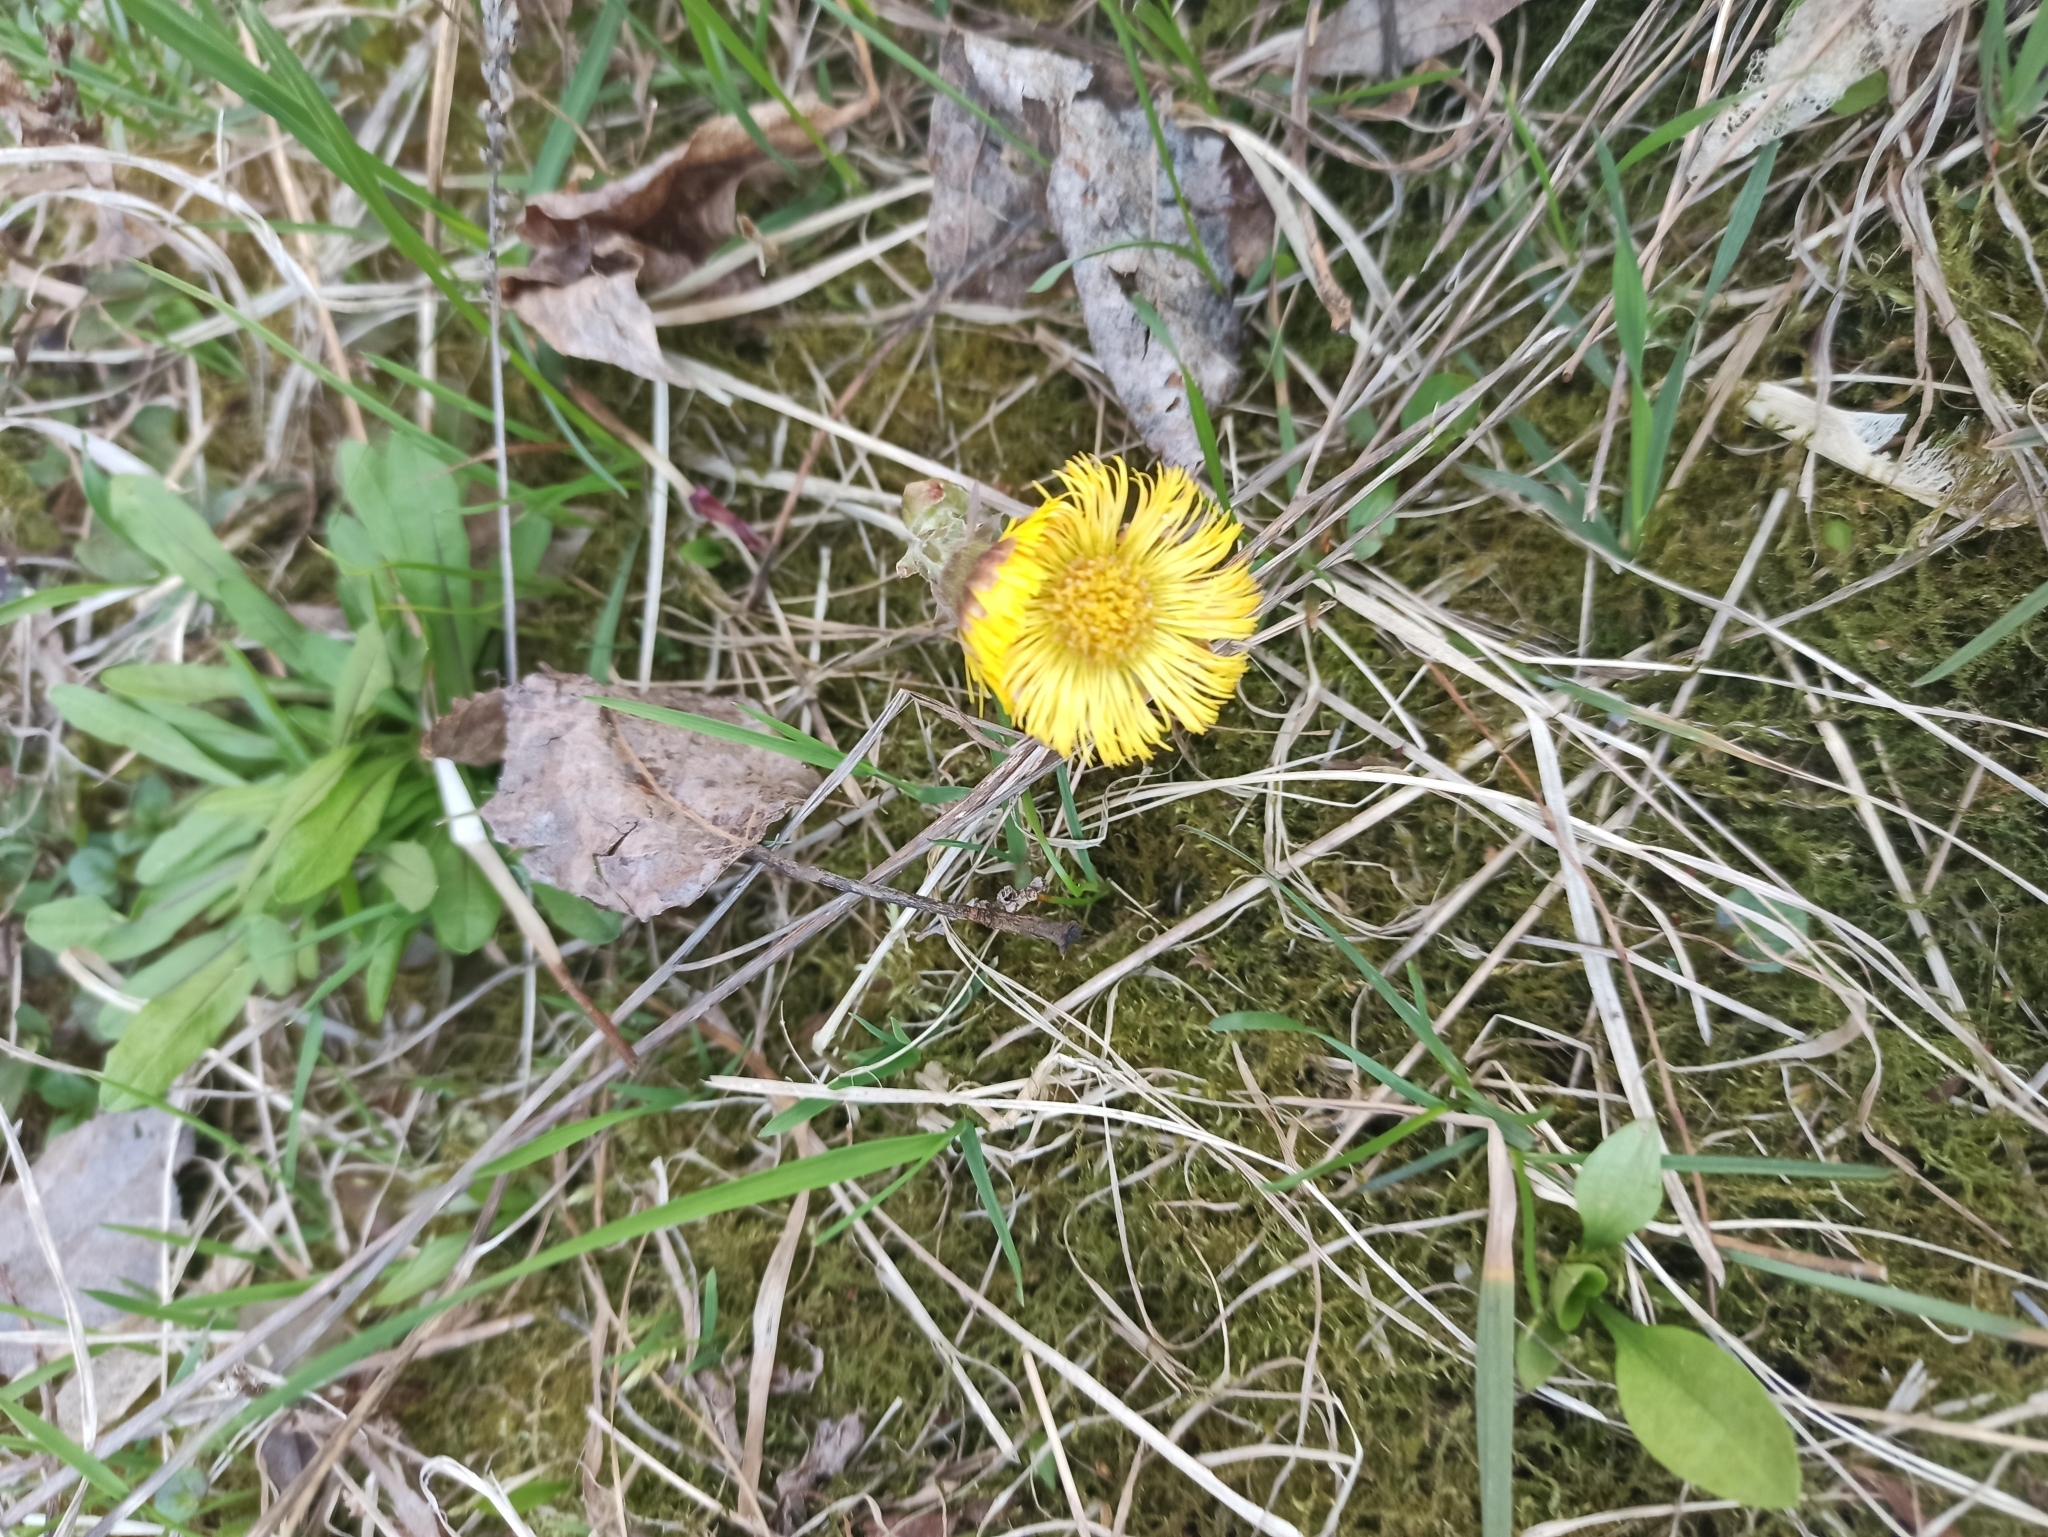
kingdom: Plantae
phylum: Tracheophyta
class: Magnoliopsida
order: Asterales
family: Asteraceae
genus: Tussilago
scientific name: Tussilago farfara
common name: Coltsfoot
